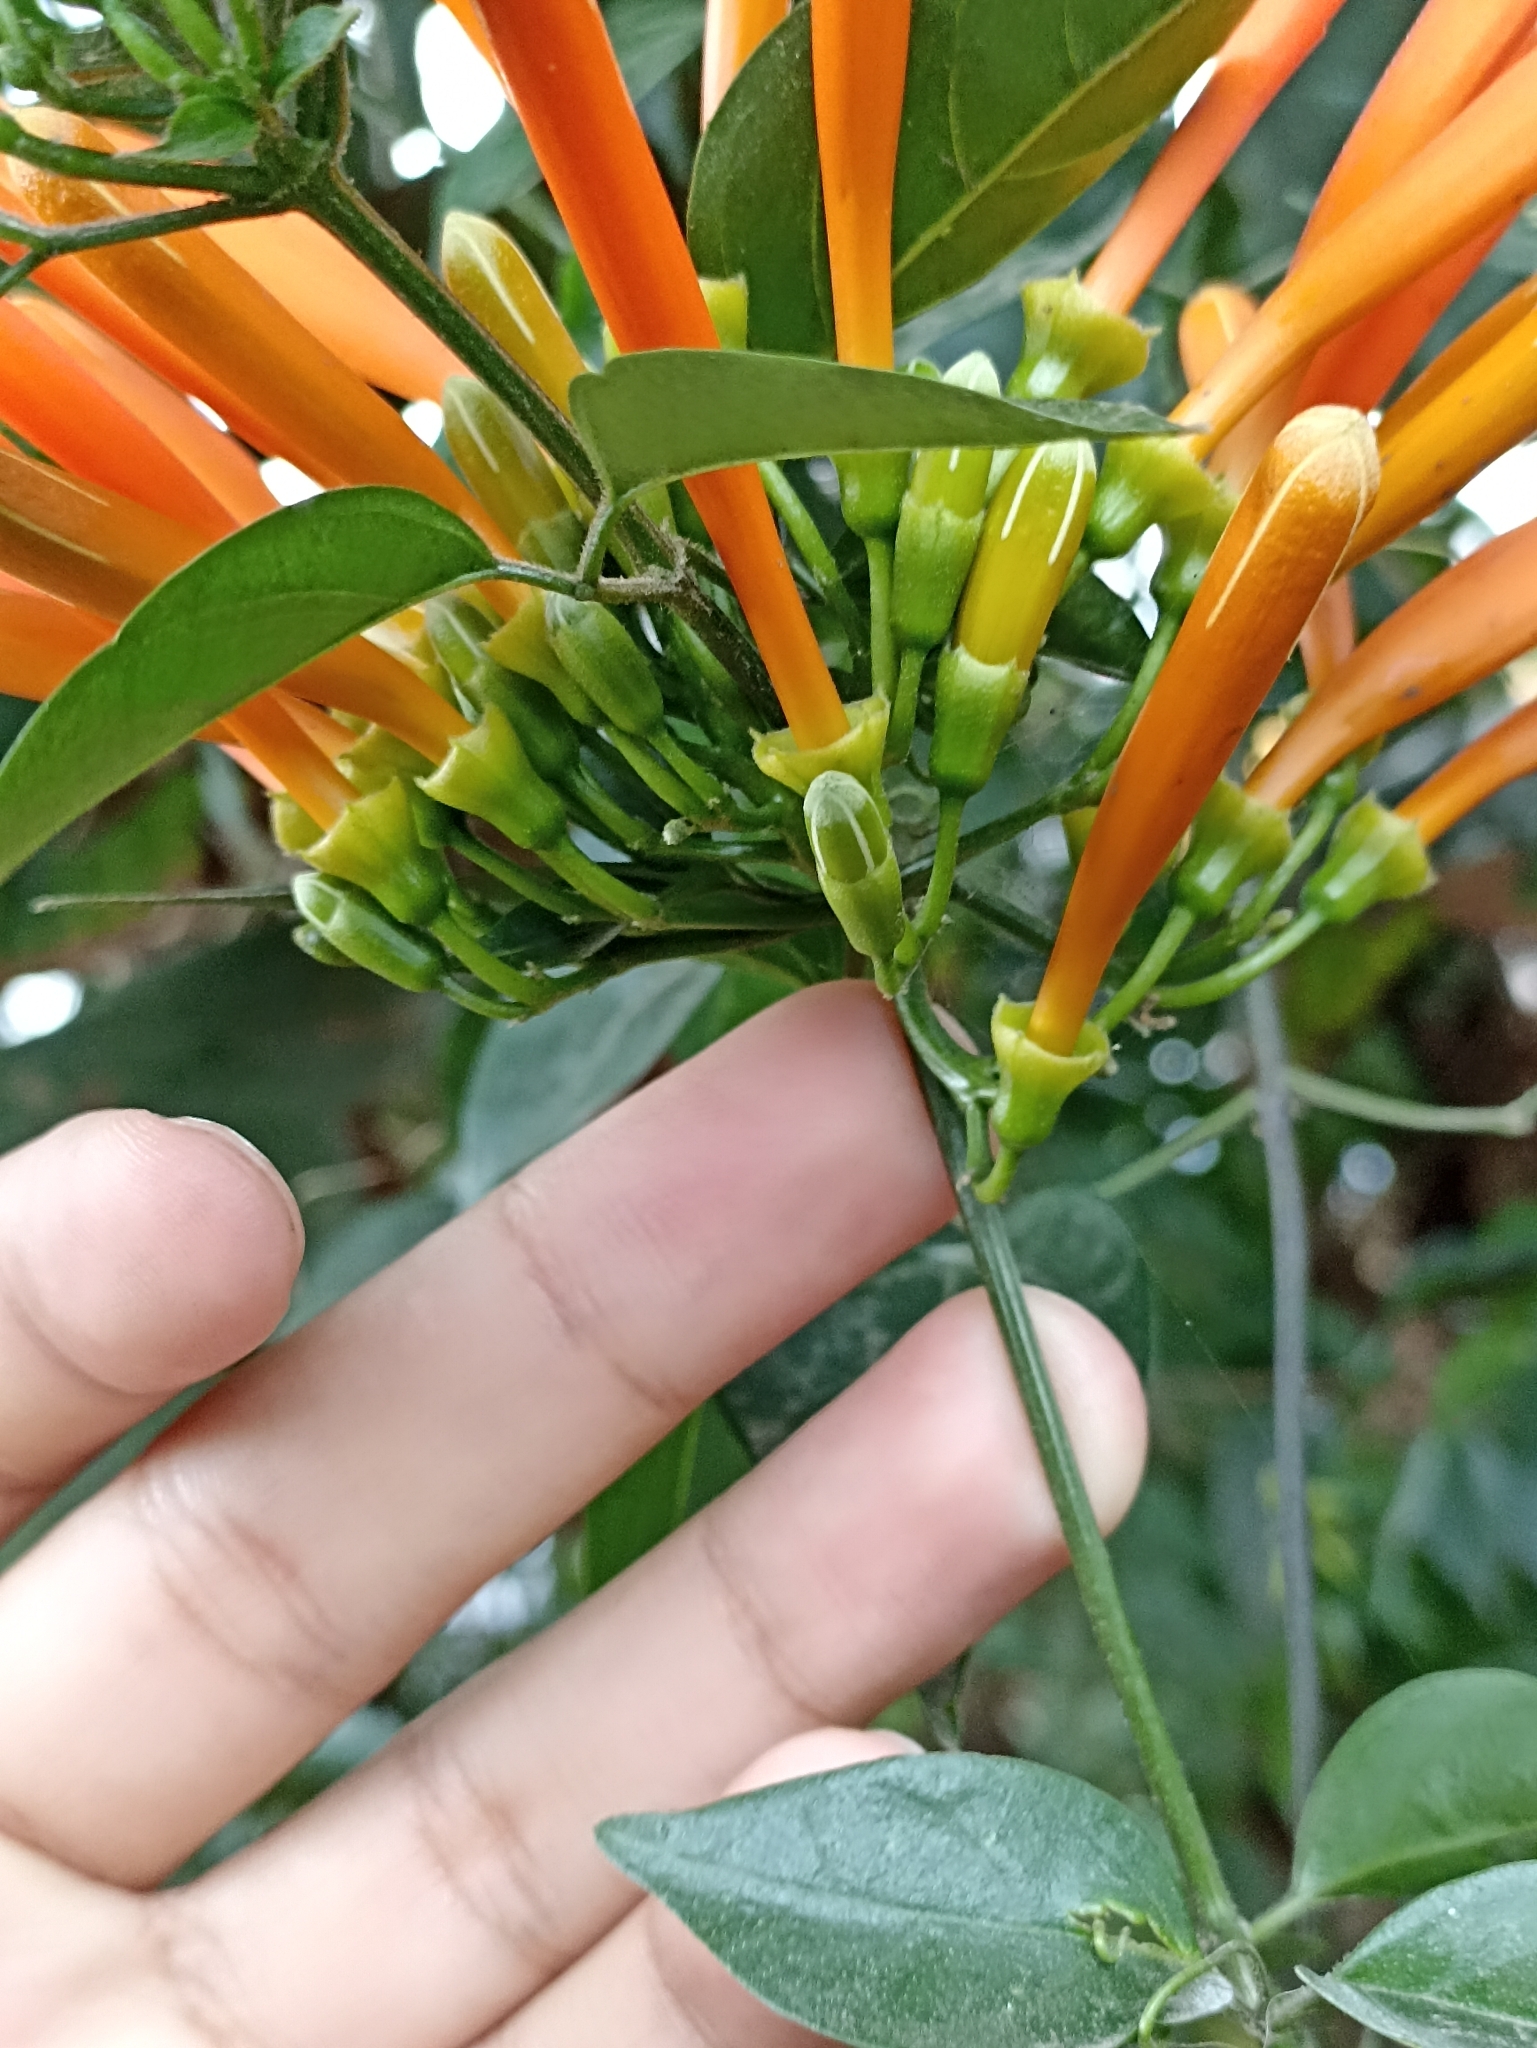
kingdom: Plantae
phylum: Tracheophyta
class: Magnoliopsida
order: Lamiales
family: Bignoniaceae
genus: Pyrostegia
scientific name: Pyrostegia venusta
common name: Flamevine
